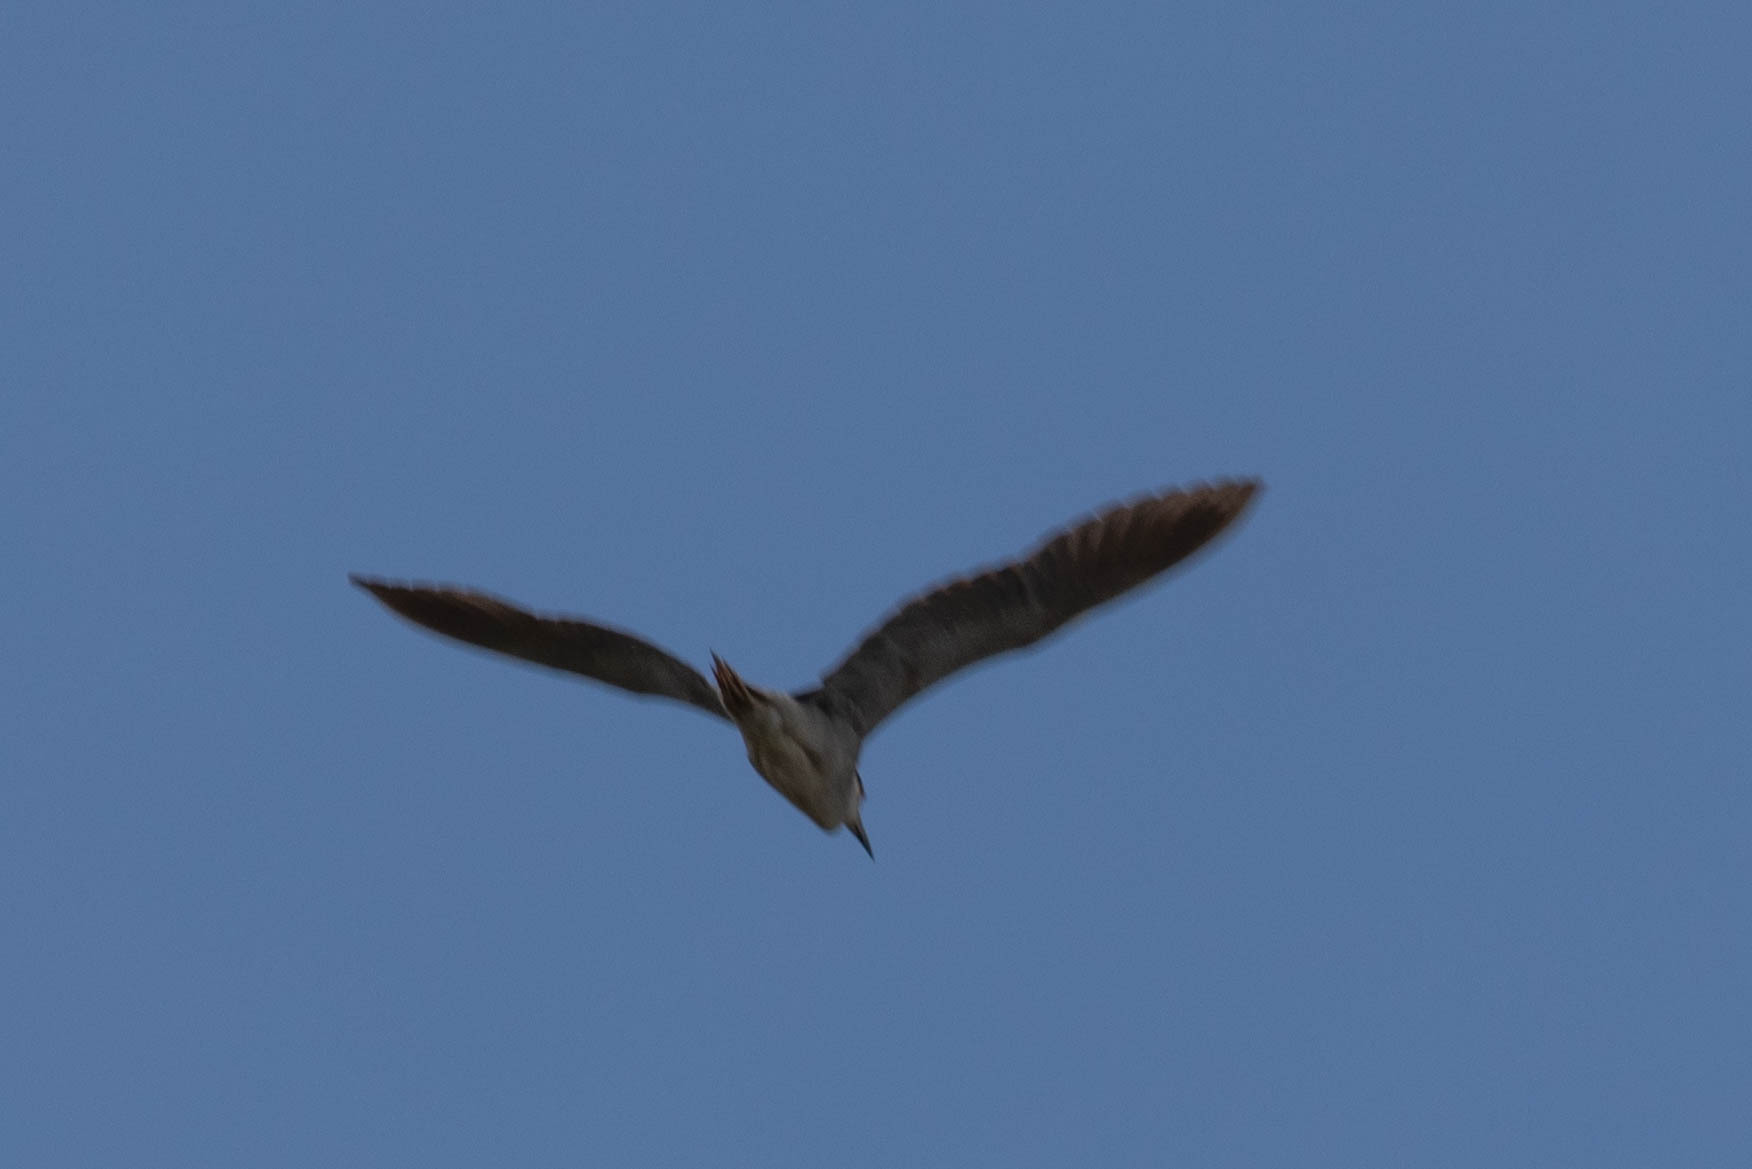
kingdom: Animalia
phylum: Chordata
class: Aves
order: Pelecaniformes
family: Ardeidae
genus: Nycticorax
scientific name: Nycticorax nycticorax
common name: Black-crowned night heron
